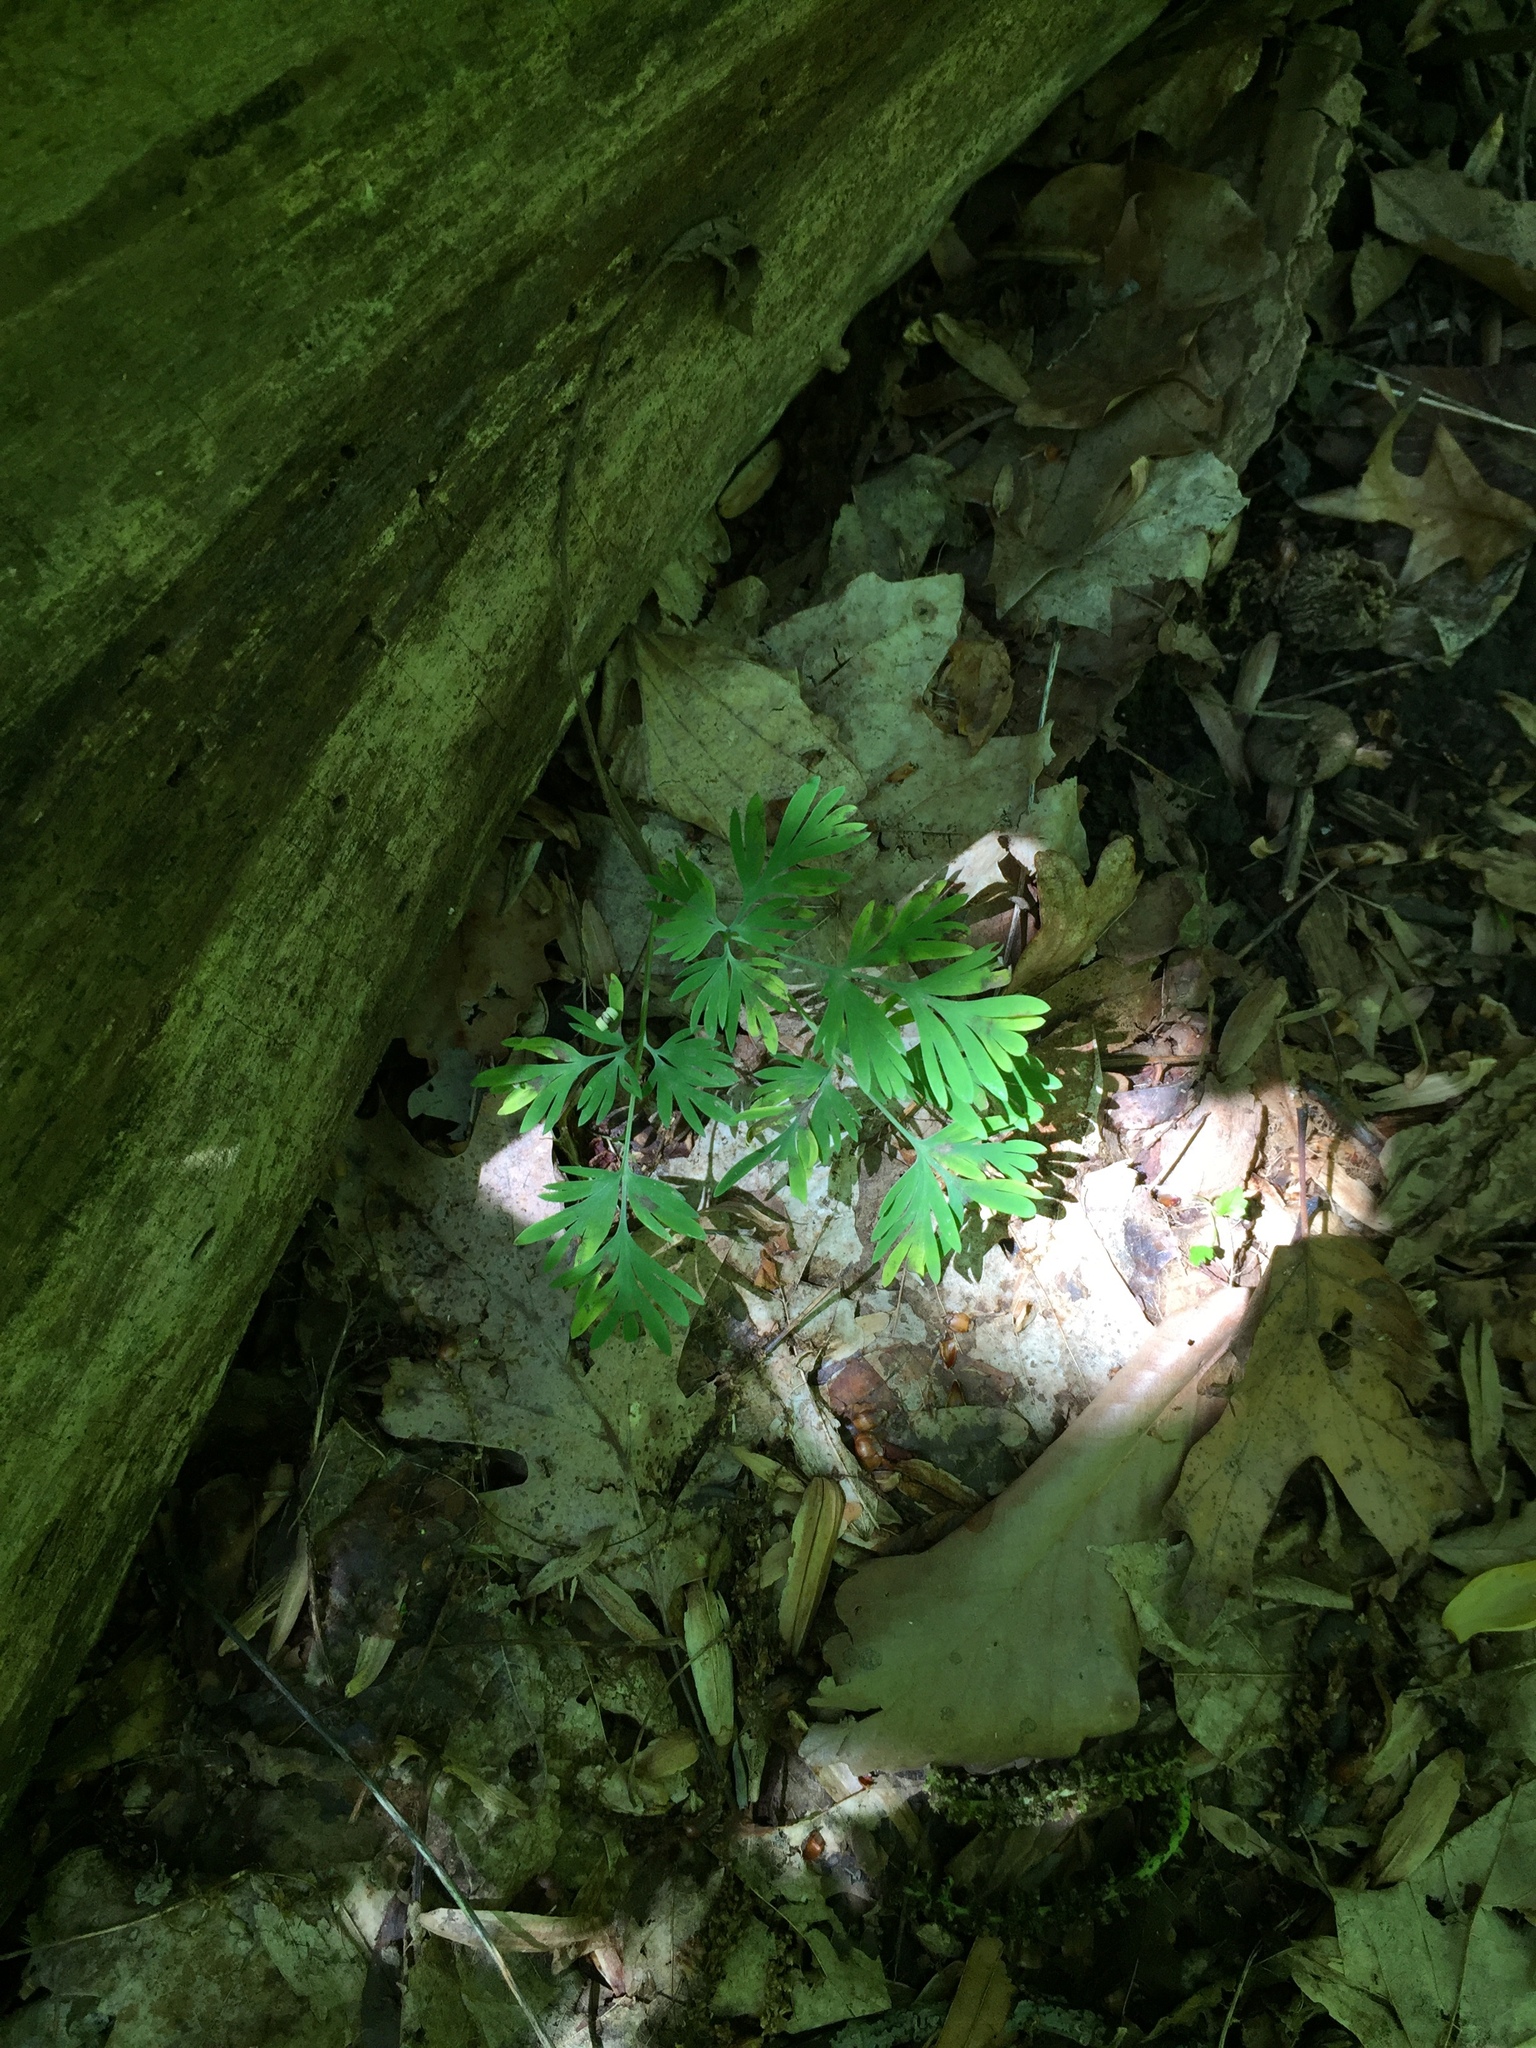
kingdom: Plantae
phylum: Tracheophyta
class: Magnoliopsida
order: Ranunculales
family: Papaveraceae
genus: Dicentra
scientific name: Dicentra cucullaria
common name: Dutchman's breeches
